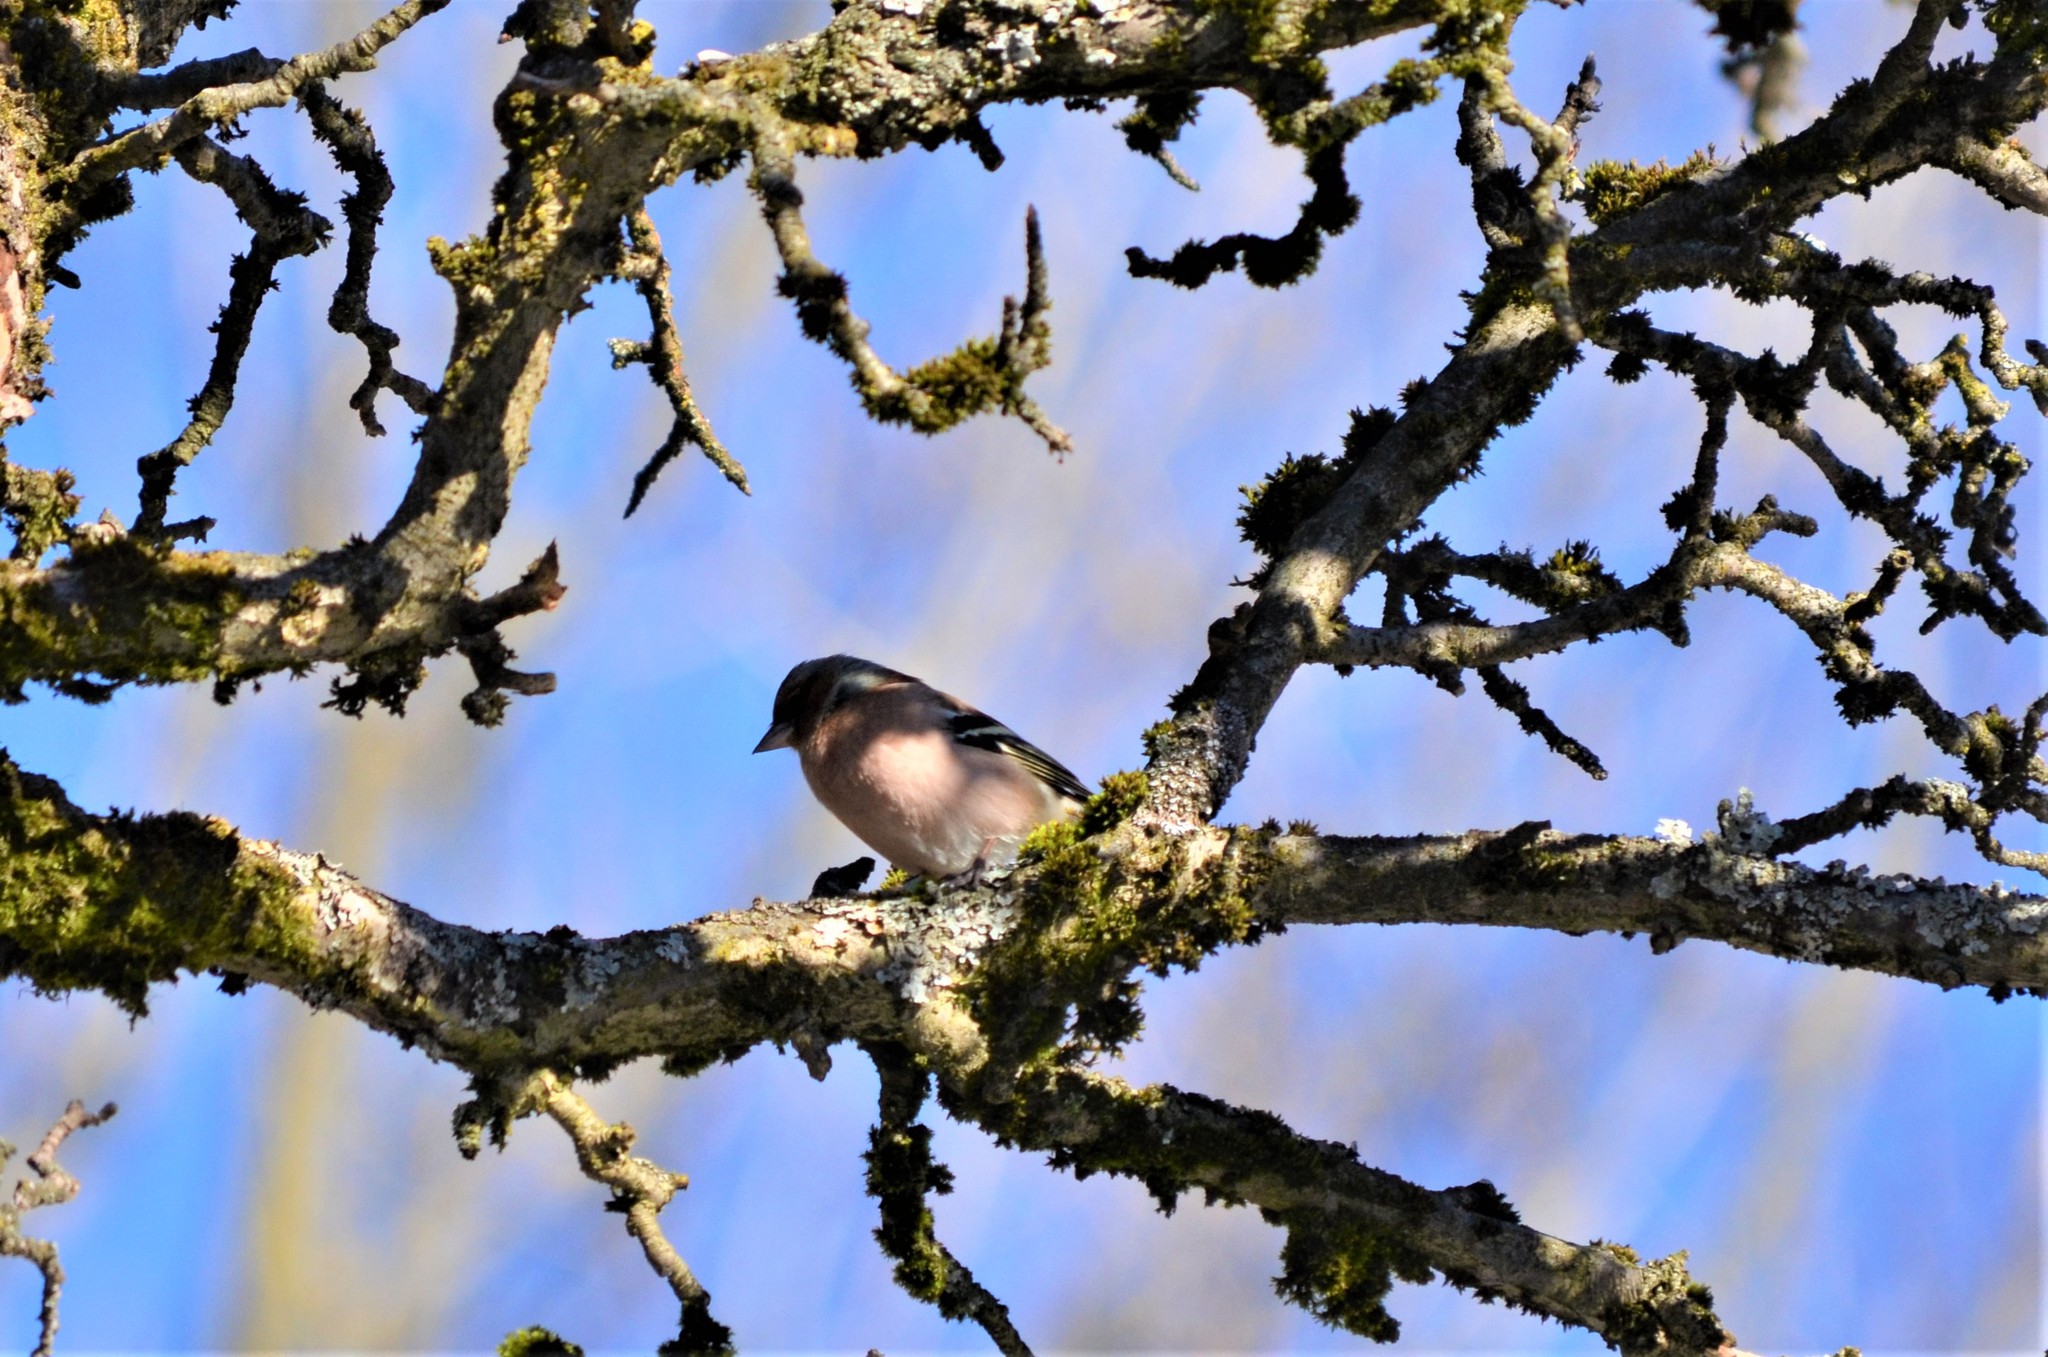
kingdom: Animalia
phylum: Chordata
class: Aves
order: Passeriformes
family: Fringillidae
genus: Fringilla
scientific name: Fringilla coelebs
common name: Common chaffinch
